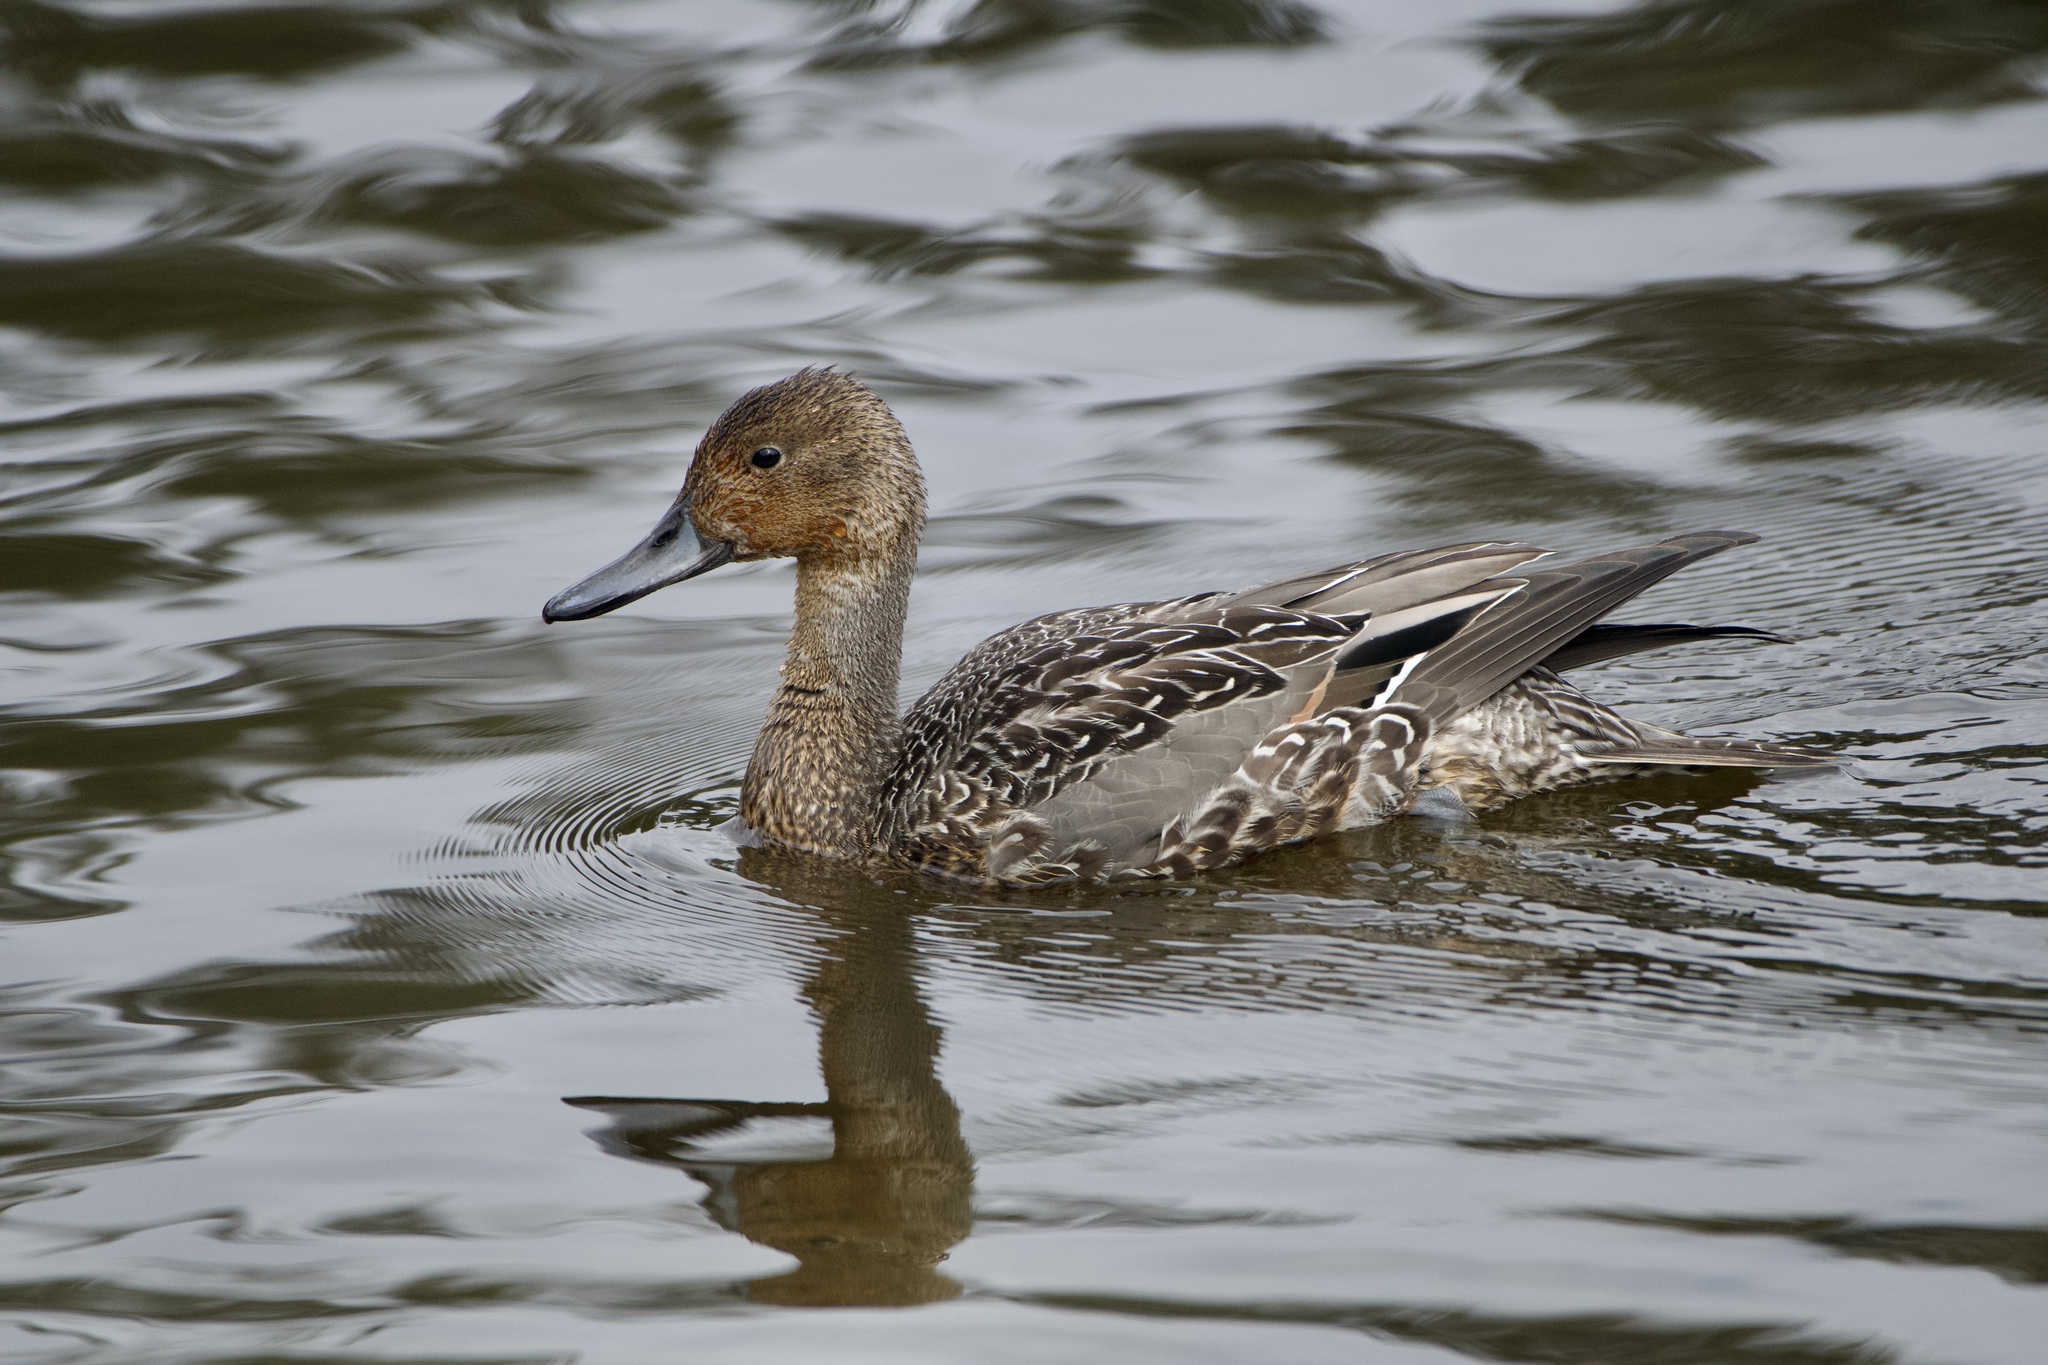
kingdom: Animalia
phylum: Chordata
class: Aves
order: Anseriformes
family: Anatidae
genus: Anas
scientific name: Anas acuta
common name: Northern pintail
